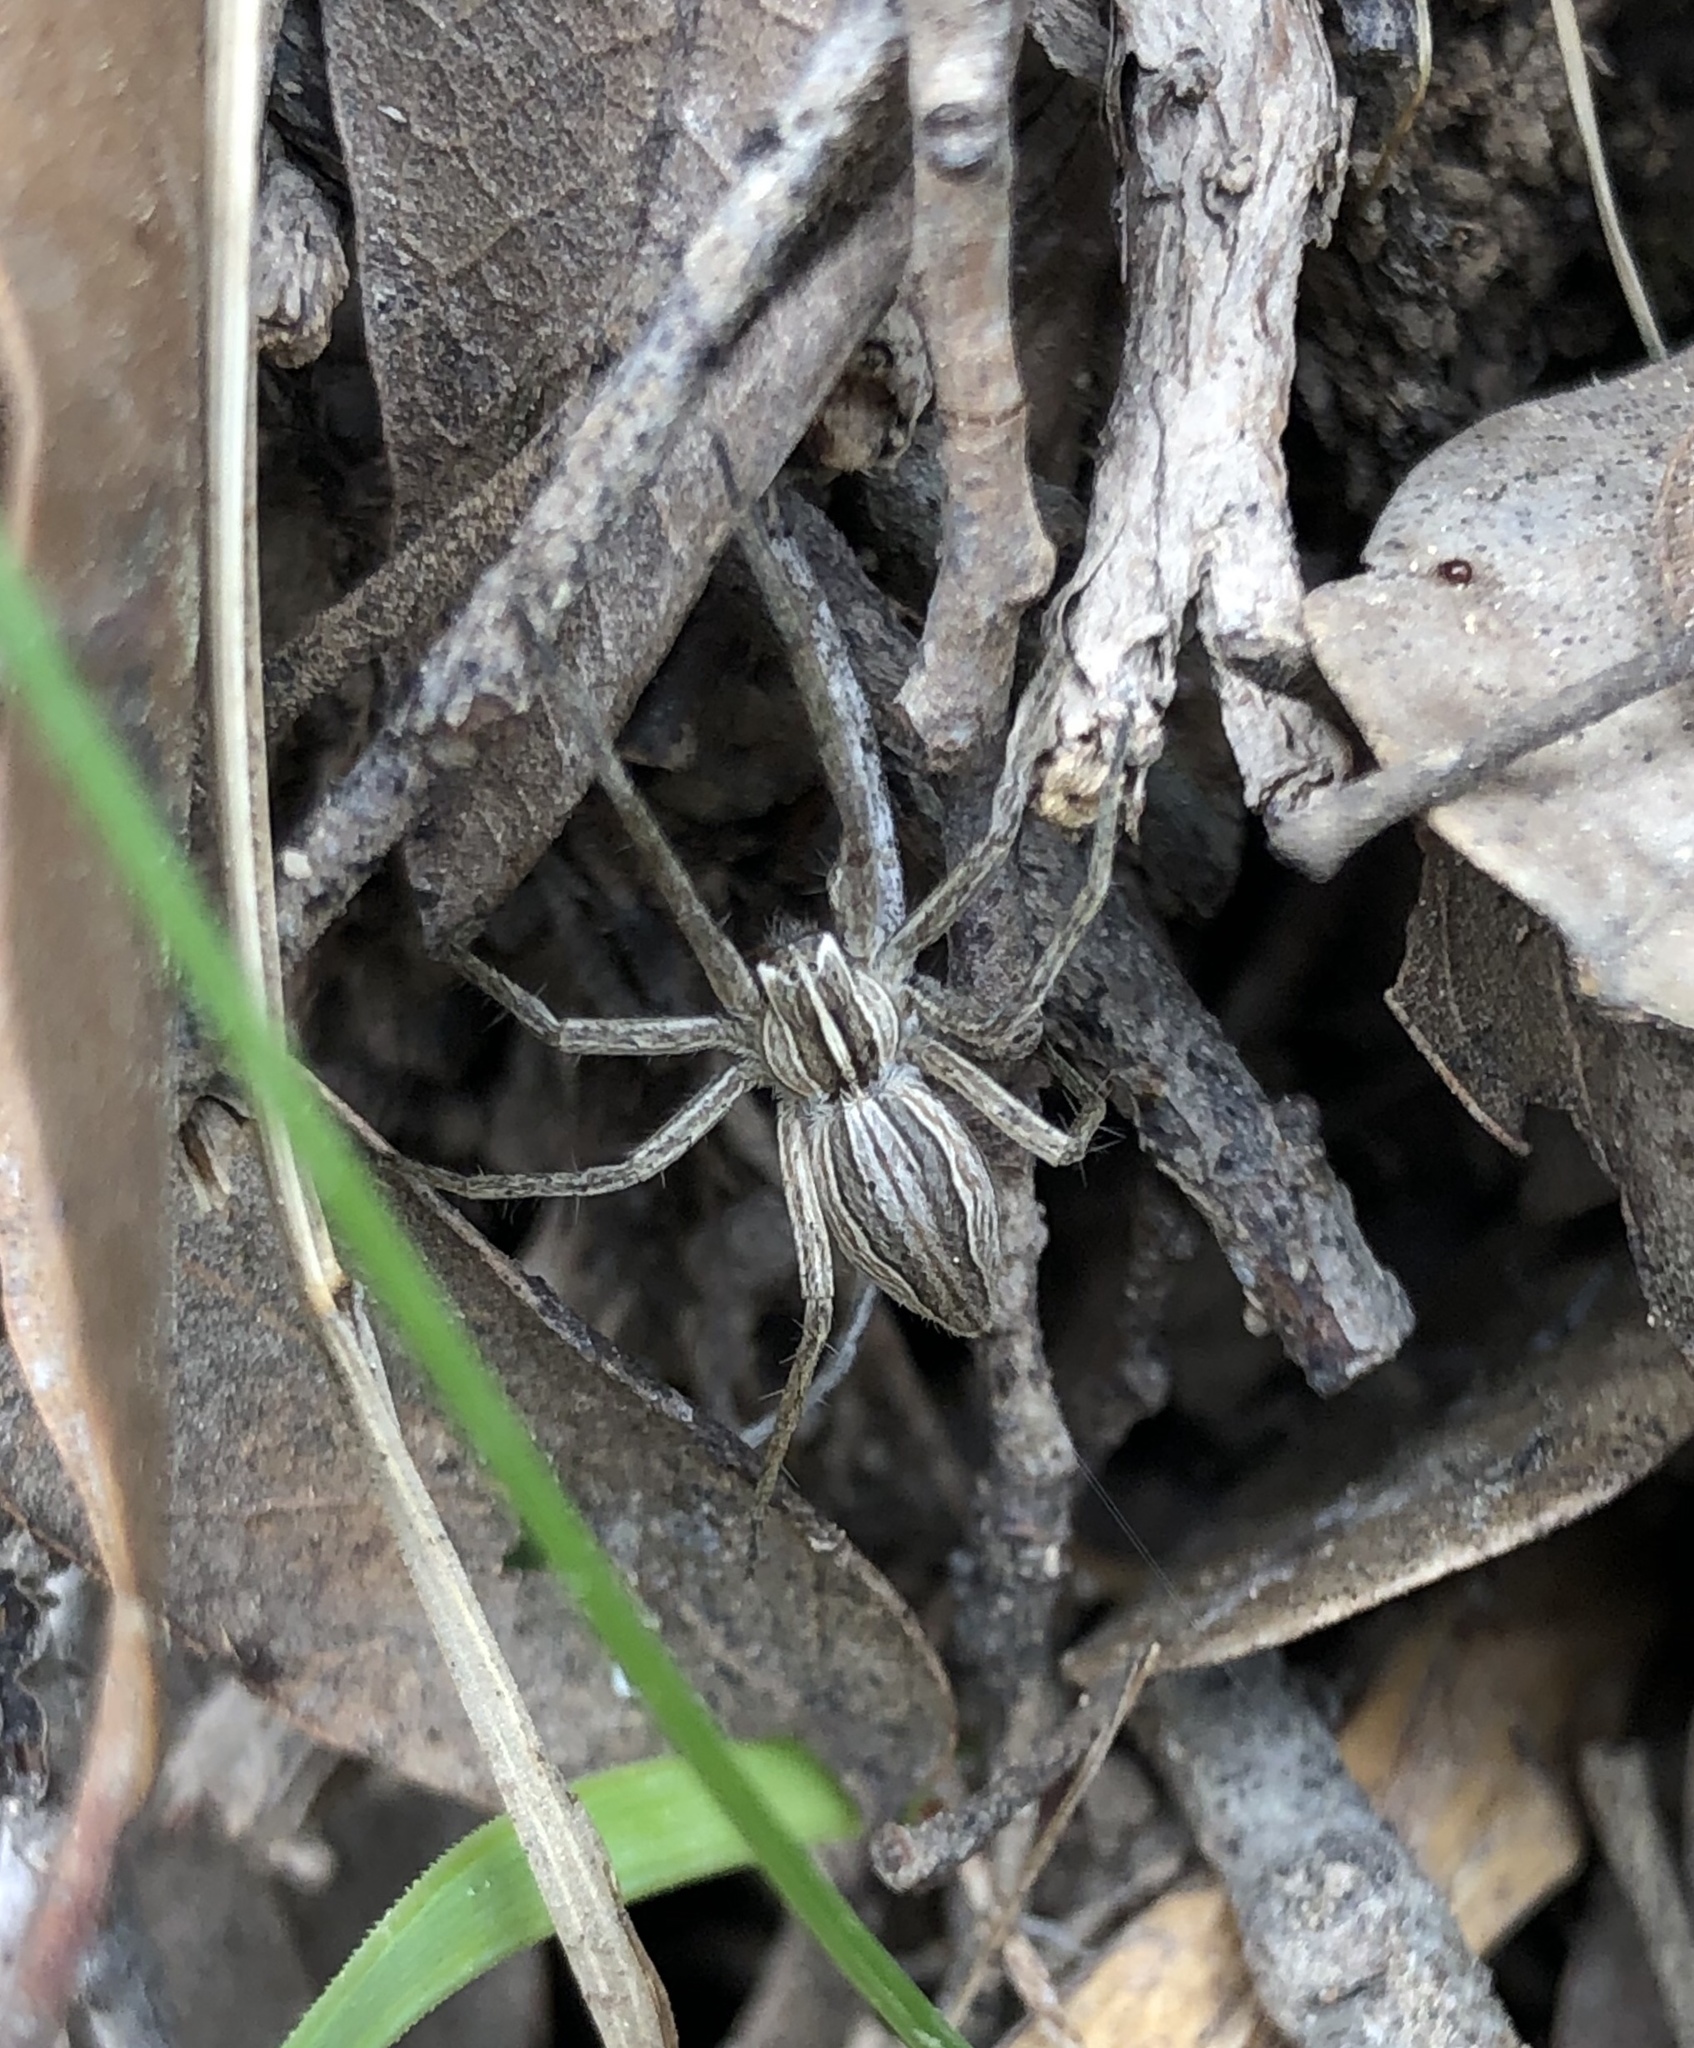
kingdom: Animalia
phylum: Arthropoda
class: Arachnida
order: Araneae
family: Pisauridae
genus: Pisaura
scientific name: Pisaura mirabilis
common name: Tent spider
